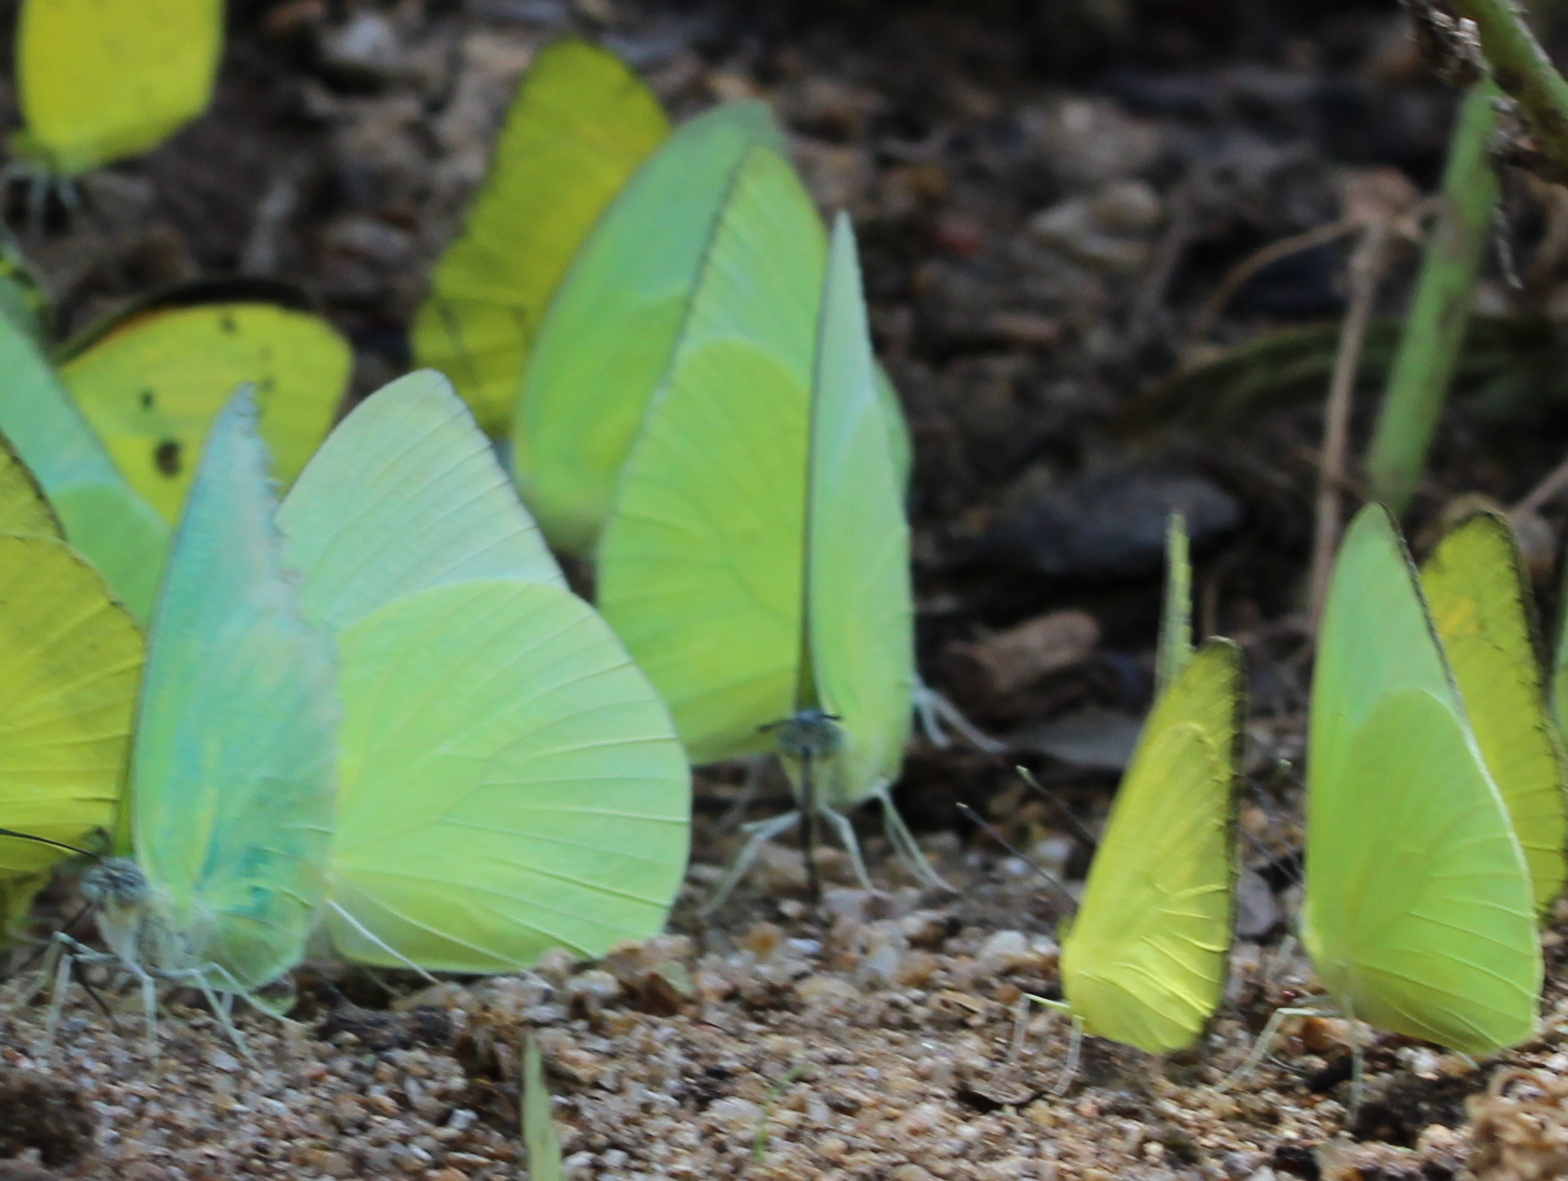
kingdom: Animalia
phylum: Arthropoda
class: Insecta
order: Lepidoptera
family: Pieridae
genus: Catopsilia
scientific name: Catopsilia pomona
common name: Common emigrant
